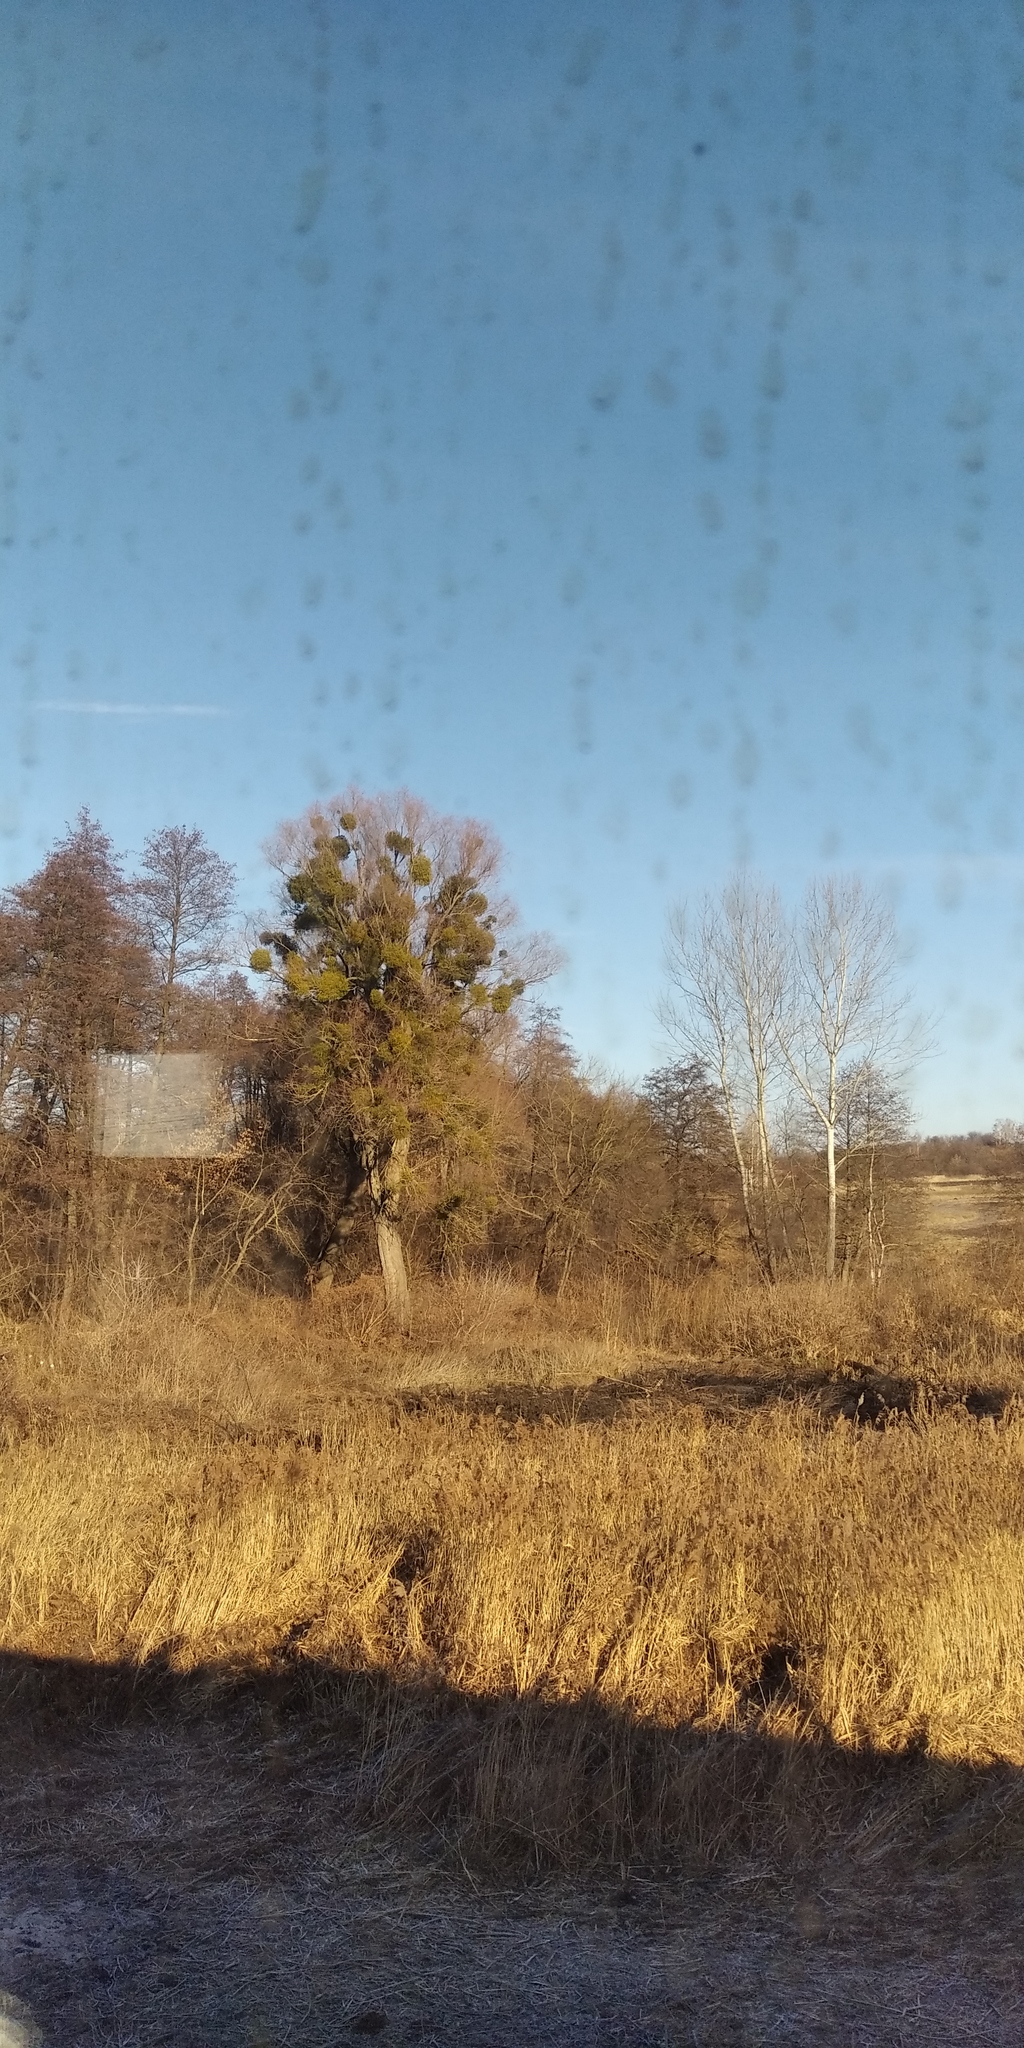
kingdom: Plantae
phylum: Tracheophyta
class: Magnoliopsida
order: Santalales
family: Viscaceae
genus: Viscum
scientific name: Viscum album
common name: Mistletoe
